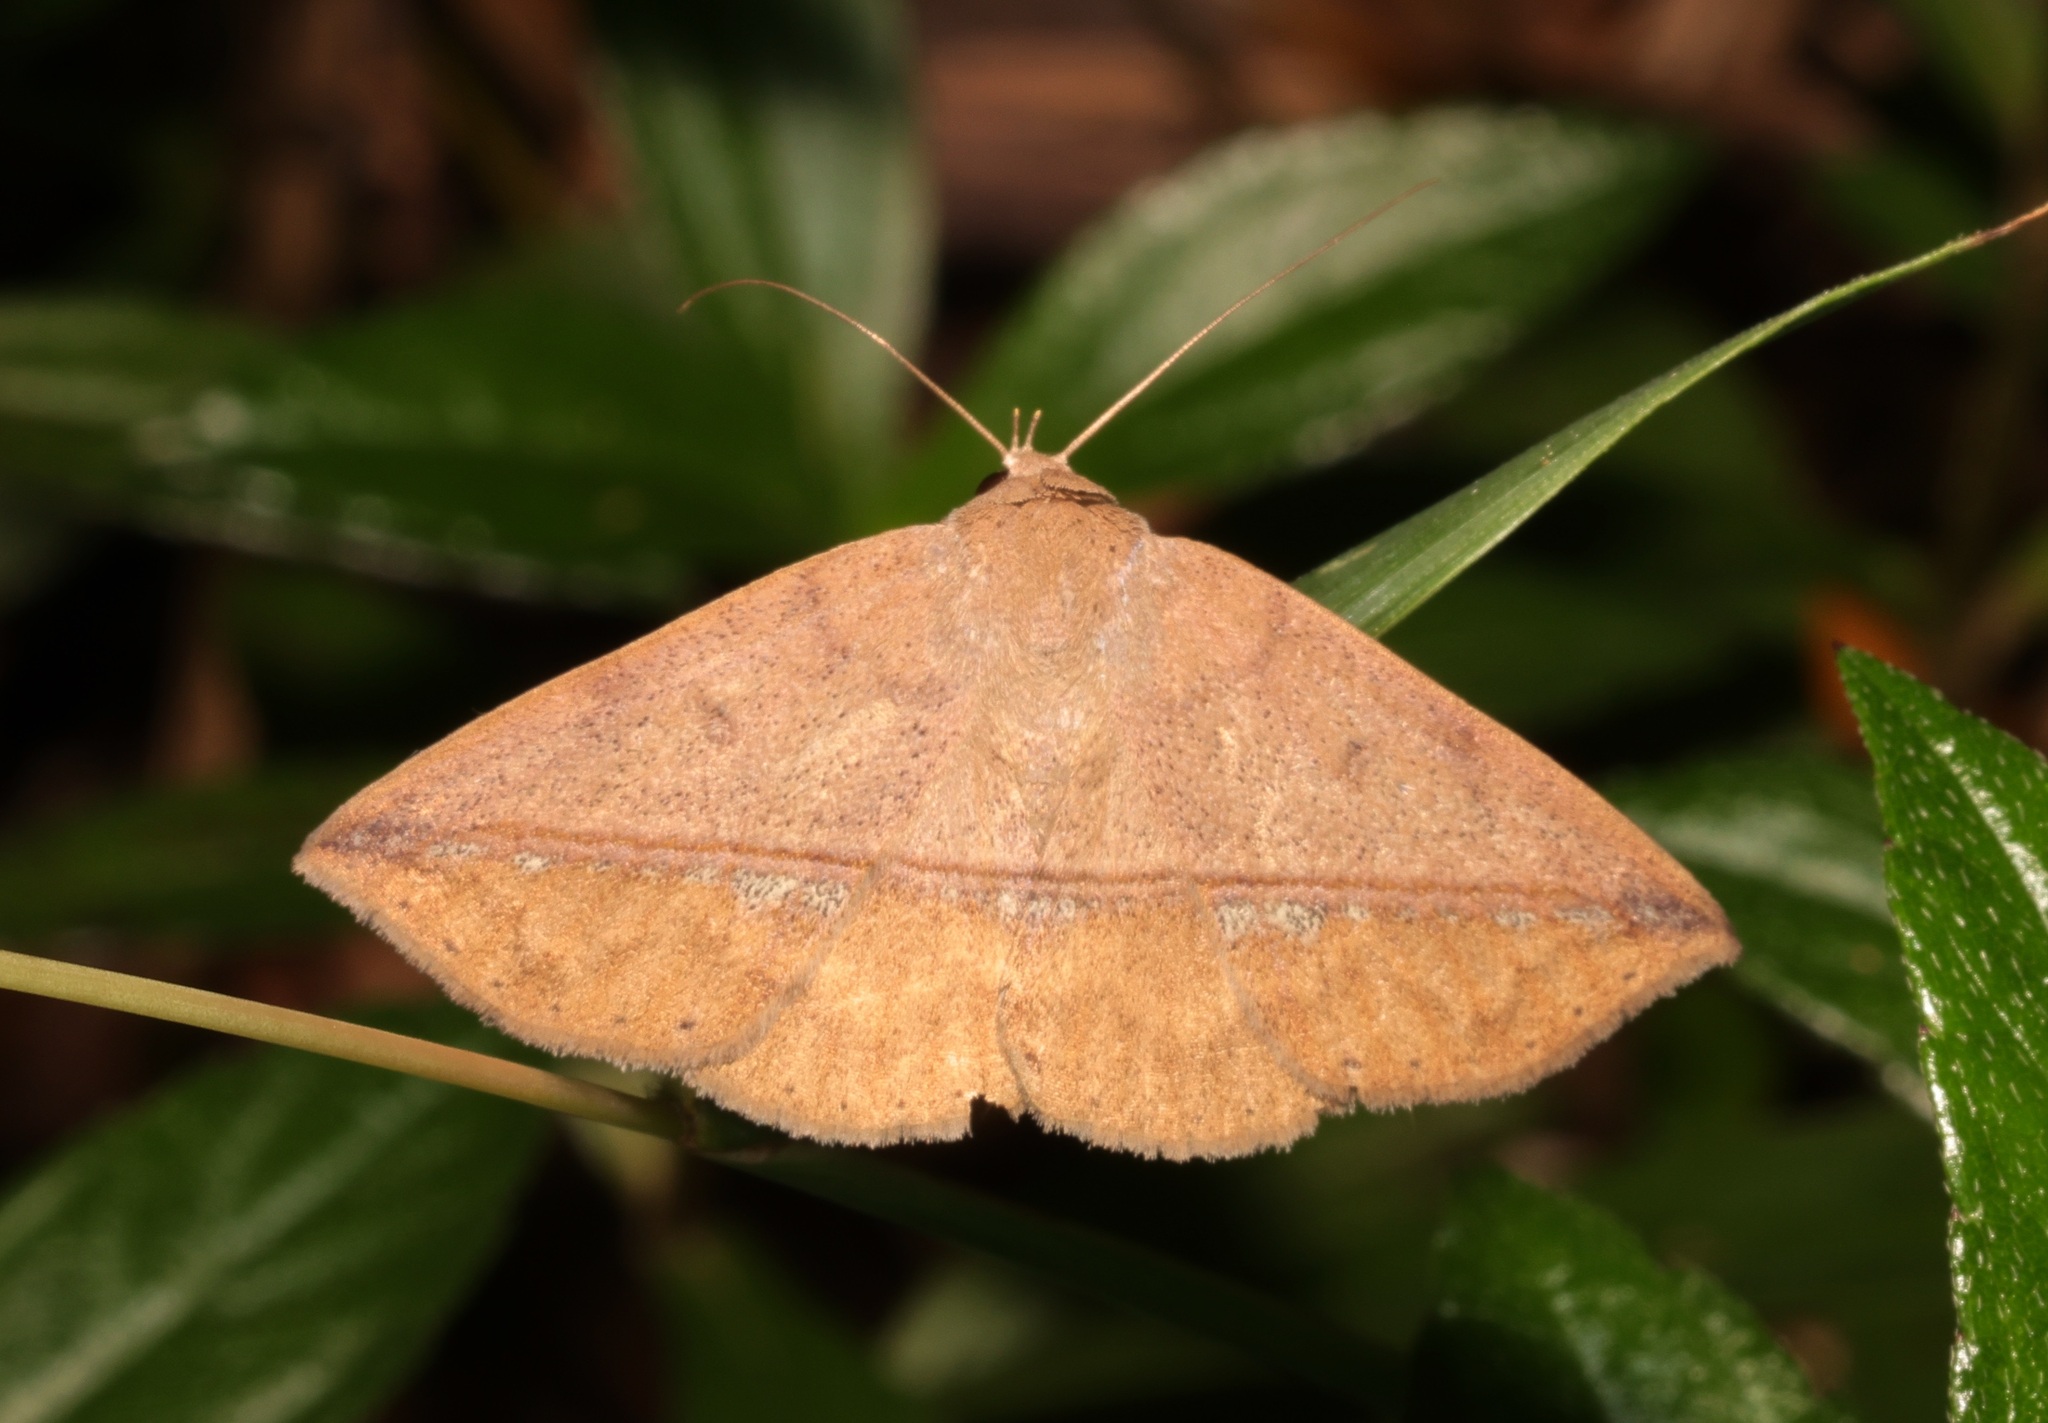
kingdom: Animalia
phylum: Arthropoda
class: Insecta
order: Lepidoptera
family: Erebidae
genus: Ugia
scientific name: Ugia purpurea
